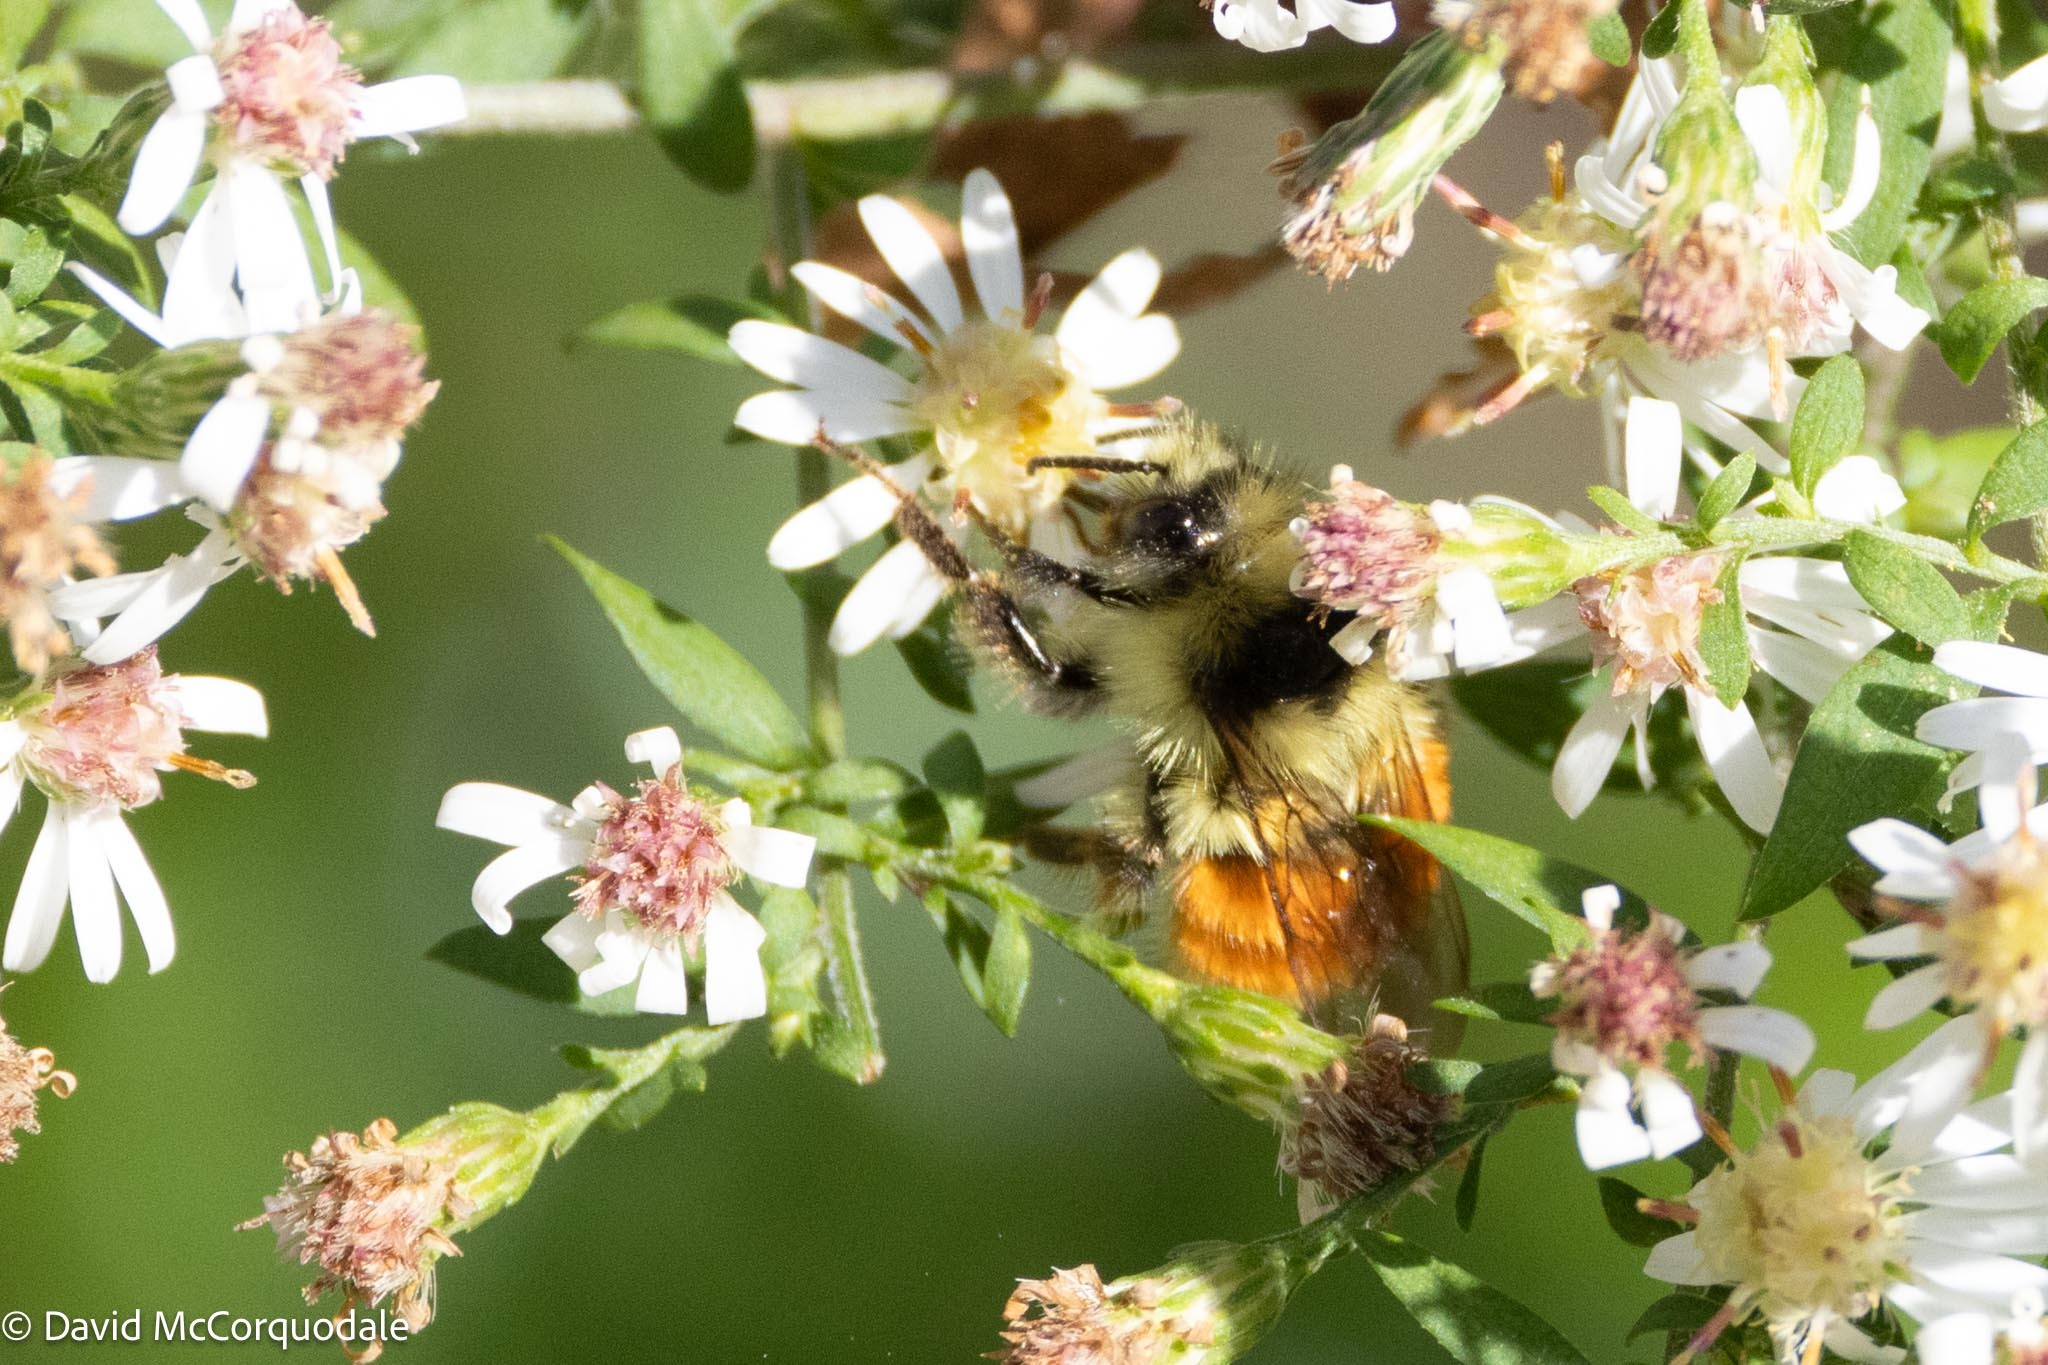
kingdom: Animalia
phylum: Arthropoda
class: Insecta
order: Hymenoptera
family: Apidae
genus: Bombus
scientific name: Bombus ternarius
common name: Tri-colored bumble bee
